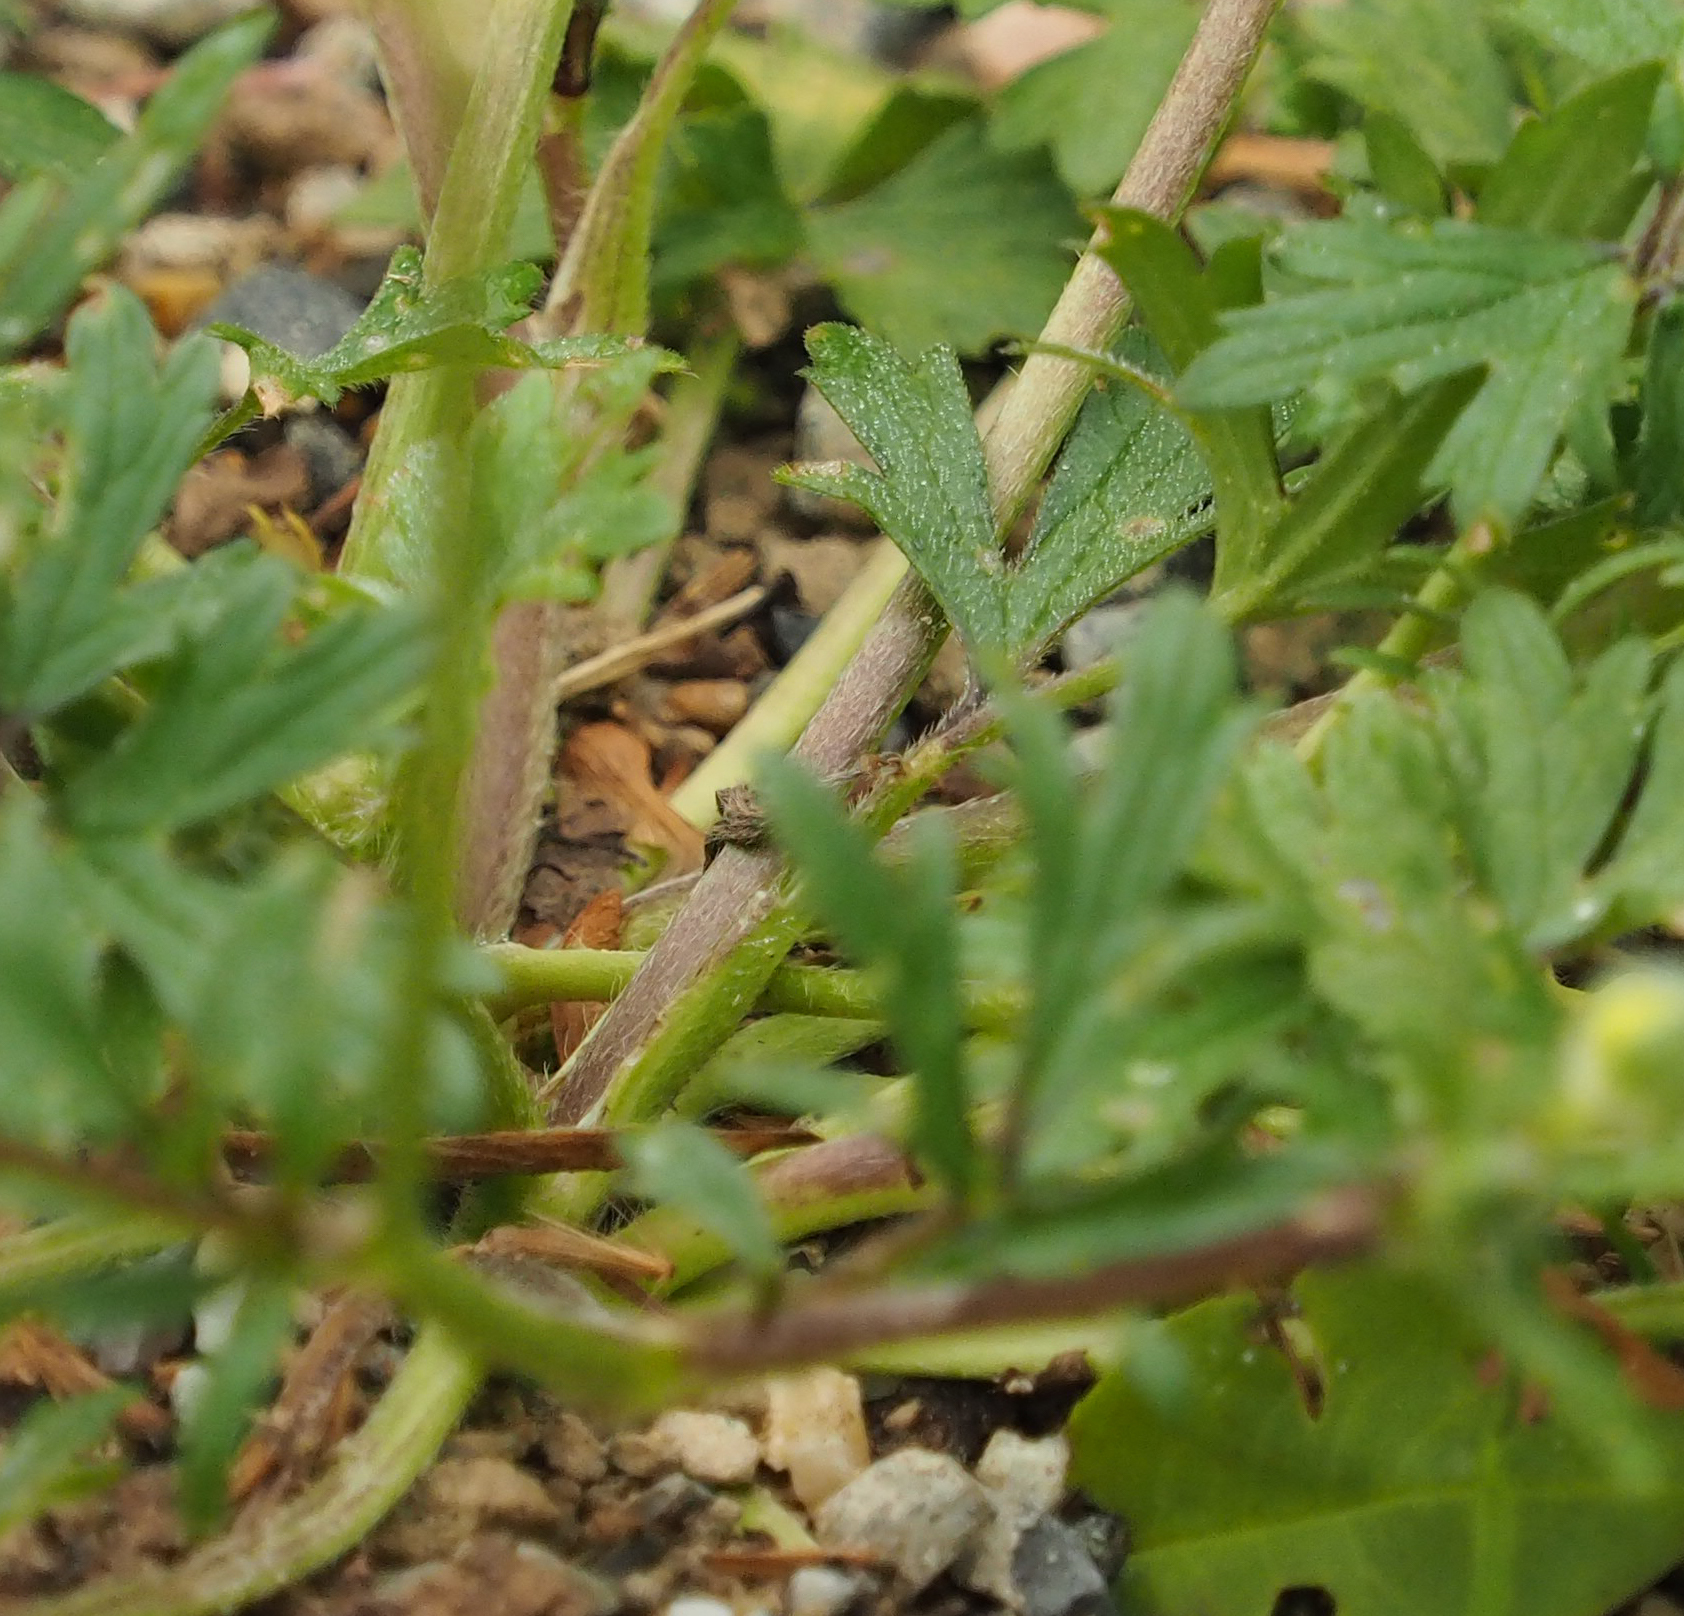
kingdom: Plantae
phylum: Tracheophyta
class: Magnoliopsida
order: Ranunculales
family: Ranunculaceae
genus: Ranunculus
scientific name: Ranunculus bulbosus
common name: Bulbous buttercup
